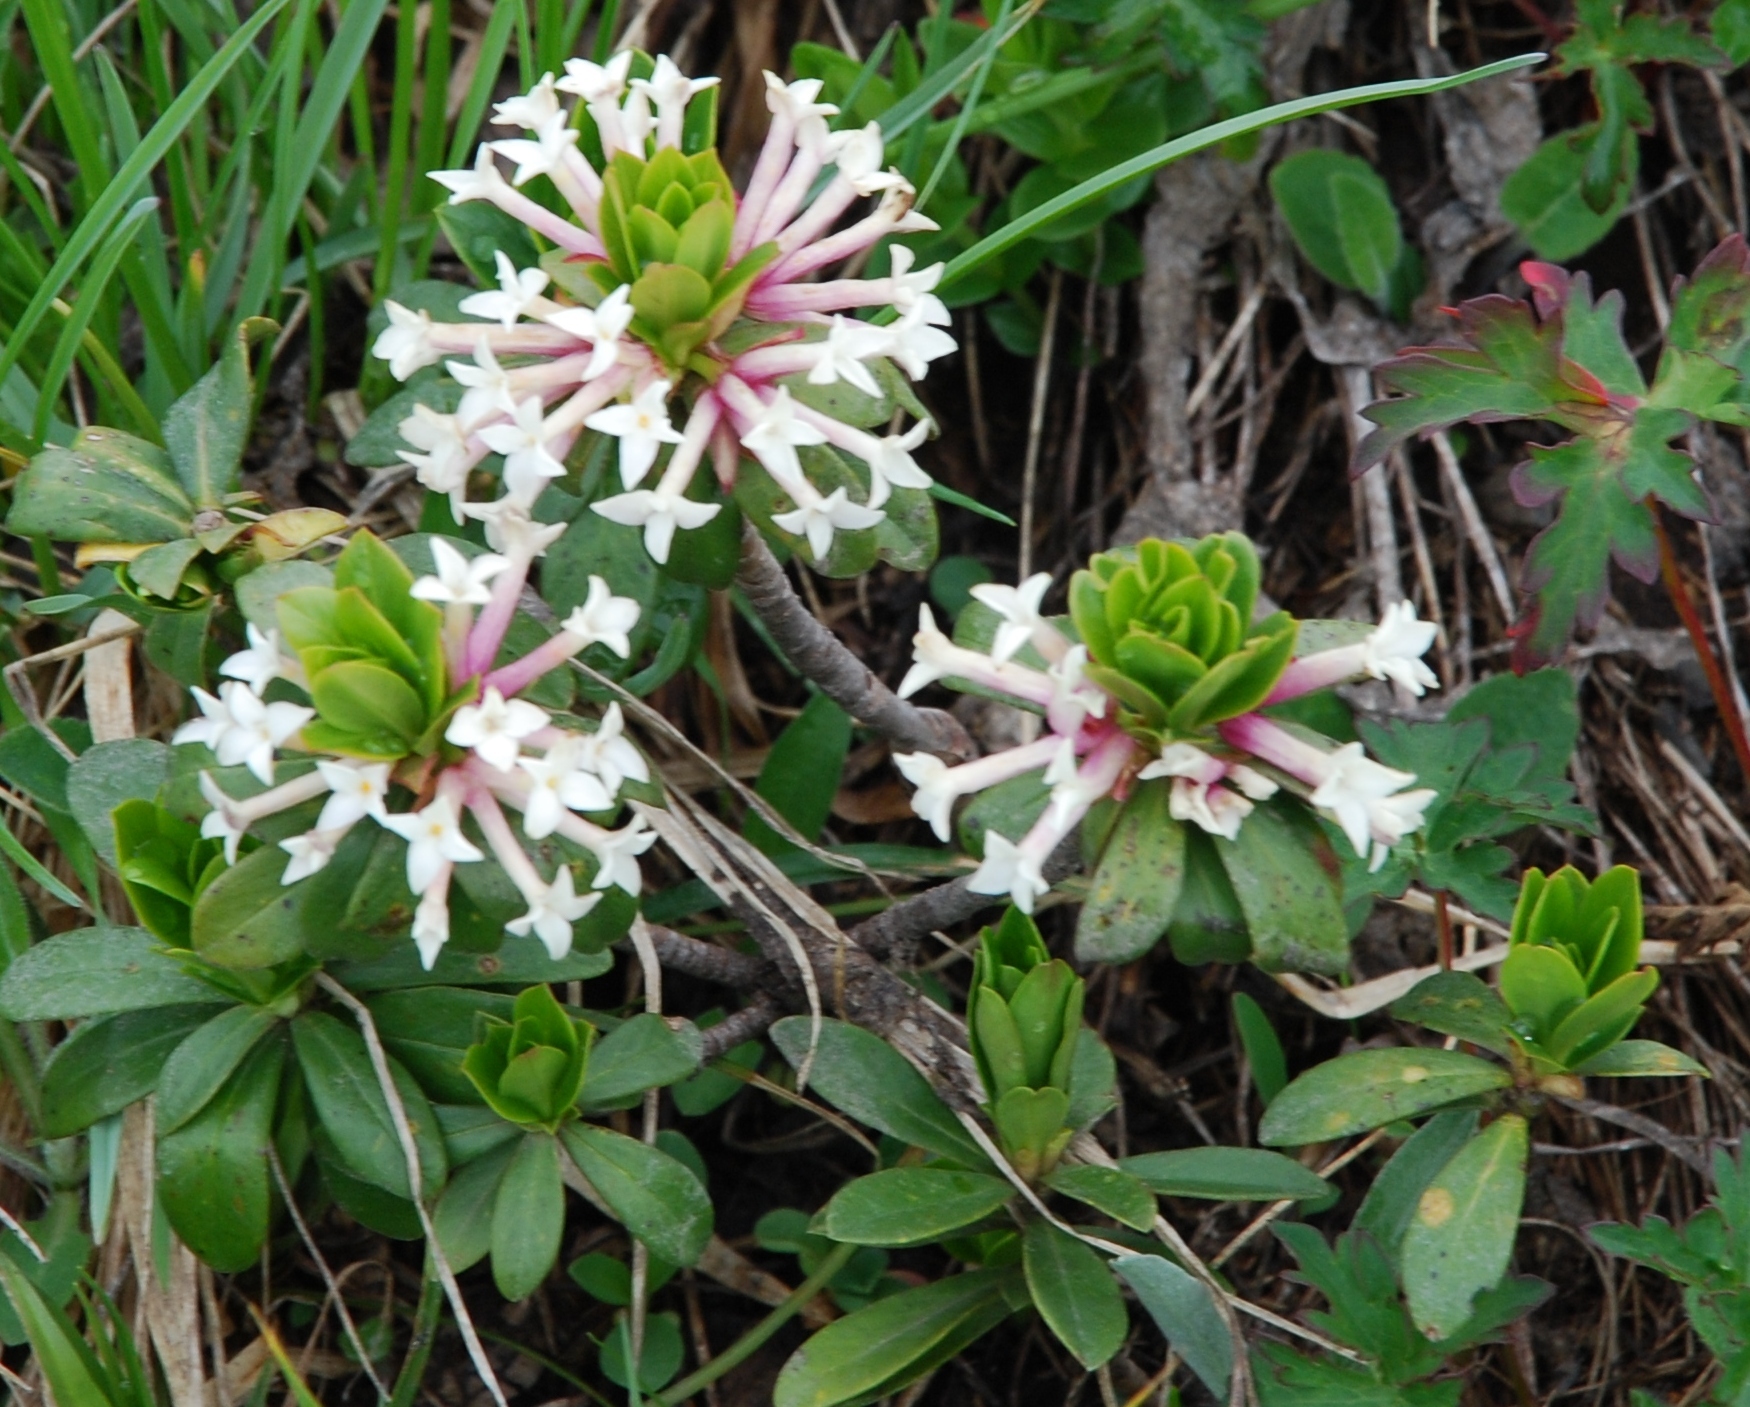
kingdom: Plantae
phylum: Tracheophyta
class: Magnoliopsida
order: Malvales
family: Thymelaeaceae
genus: Daphne
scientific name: Daphne glomerata
